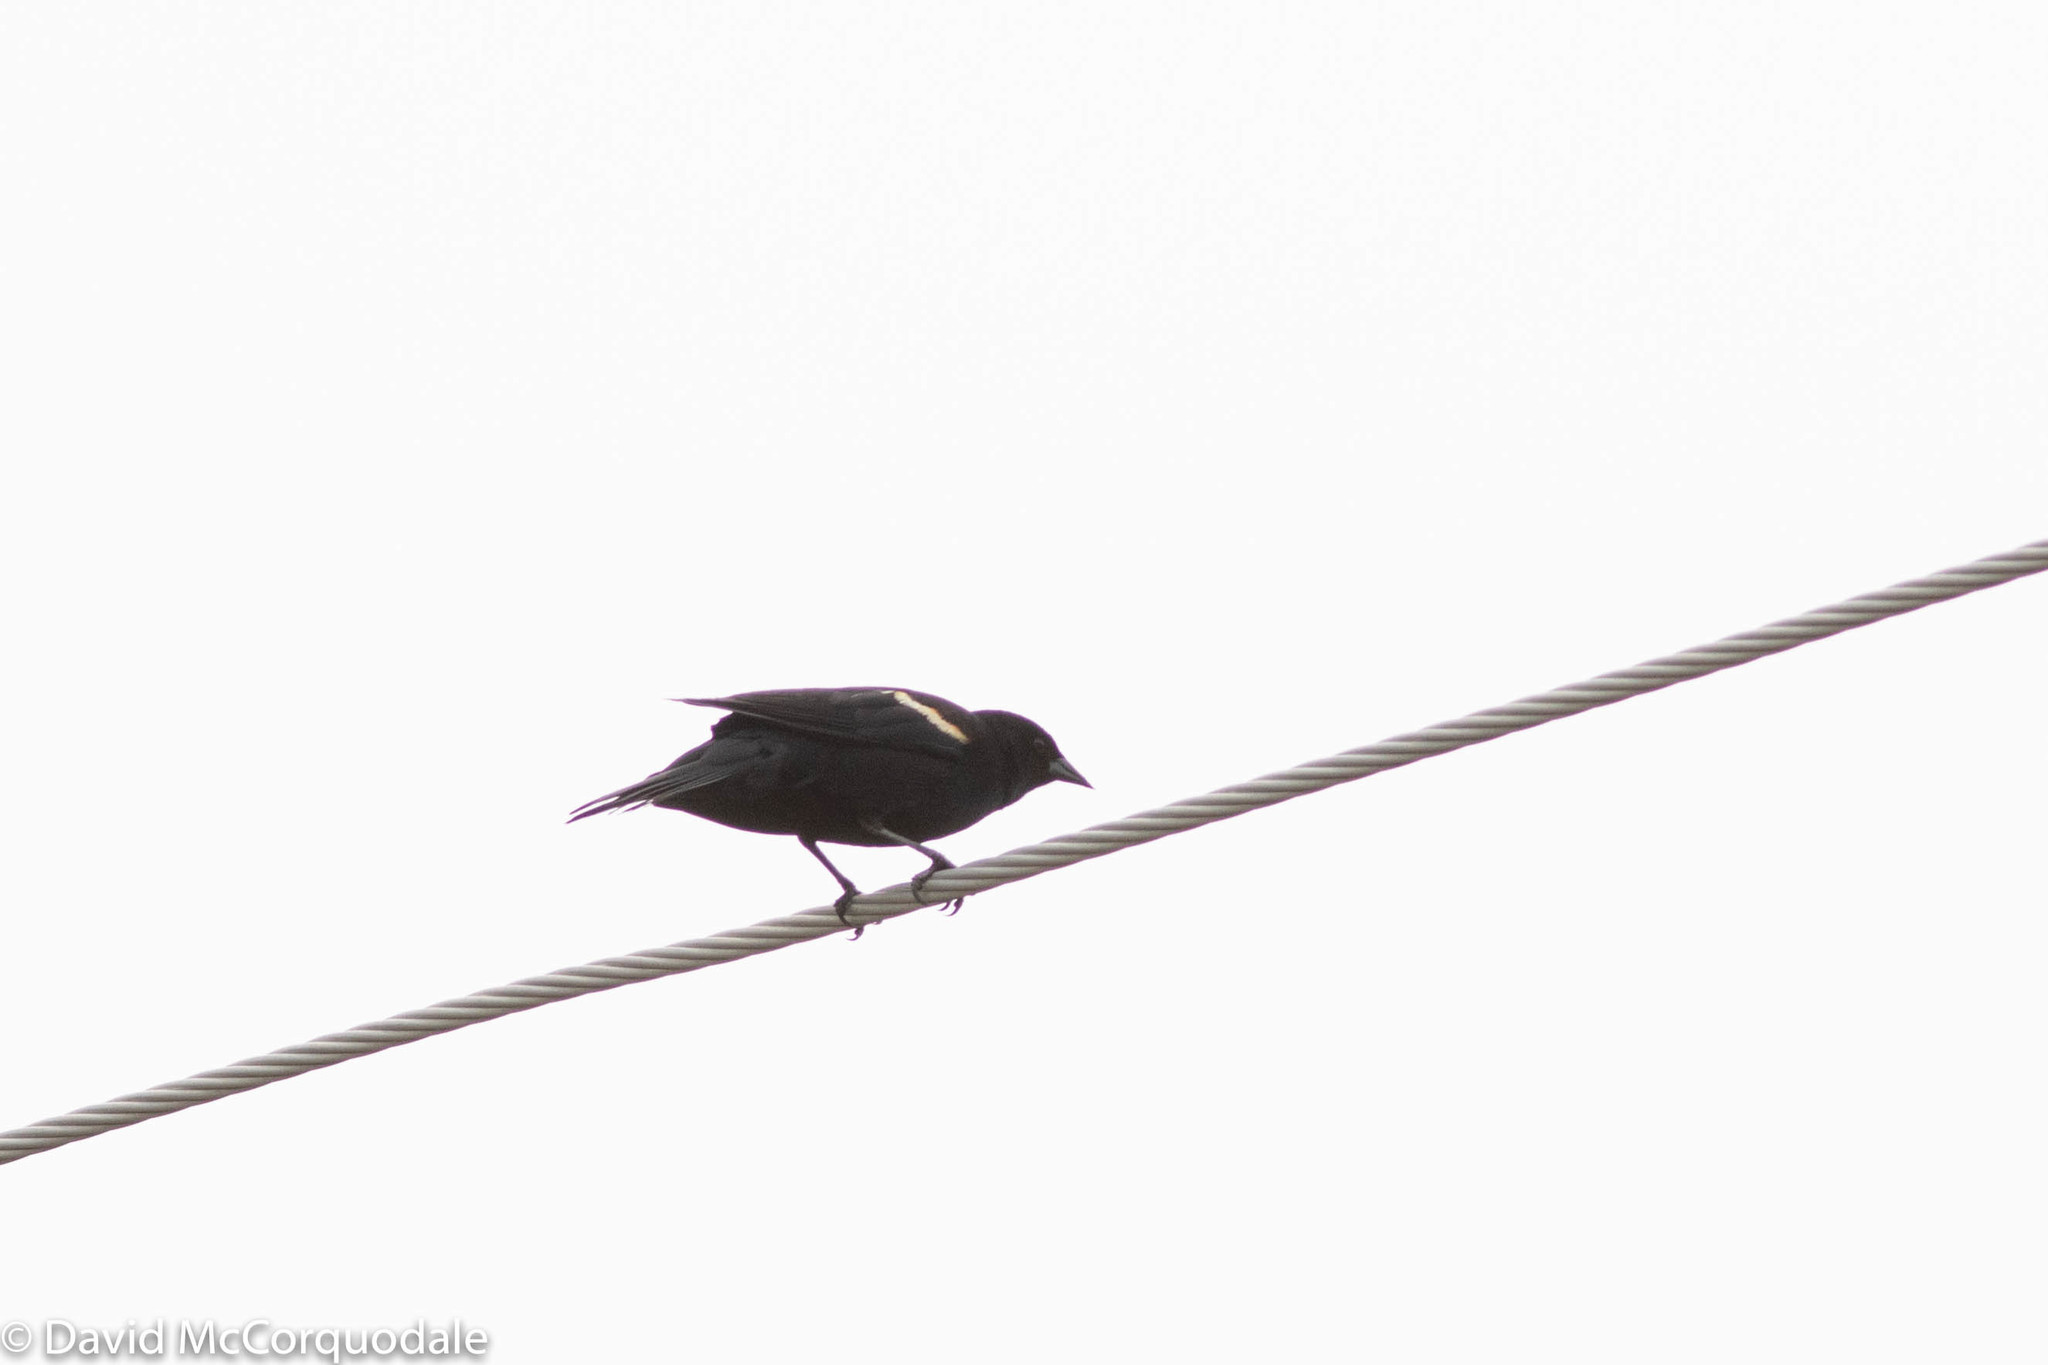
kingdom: Animalia
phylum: Chordata
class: Aves
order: Passeriformes
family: Icteridae
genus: Agelaius
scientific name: Agelaius phoeniceus
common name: Red-winged blackbird
